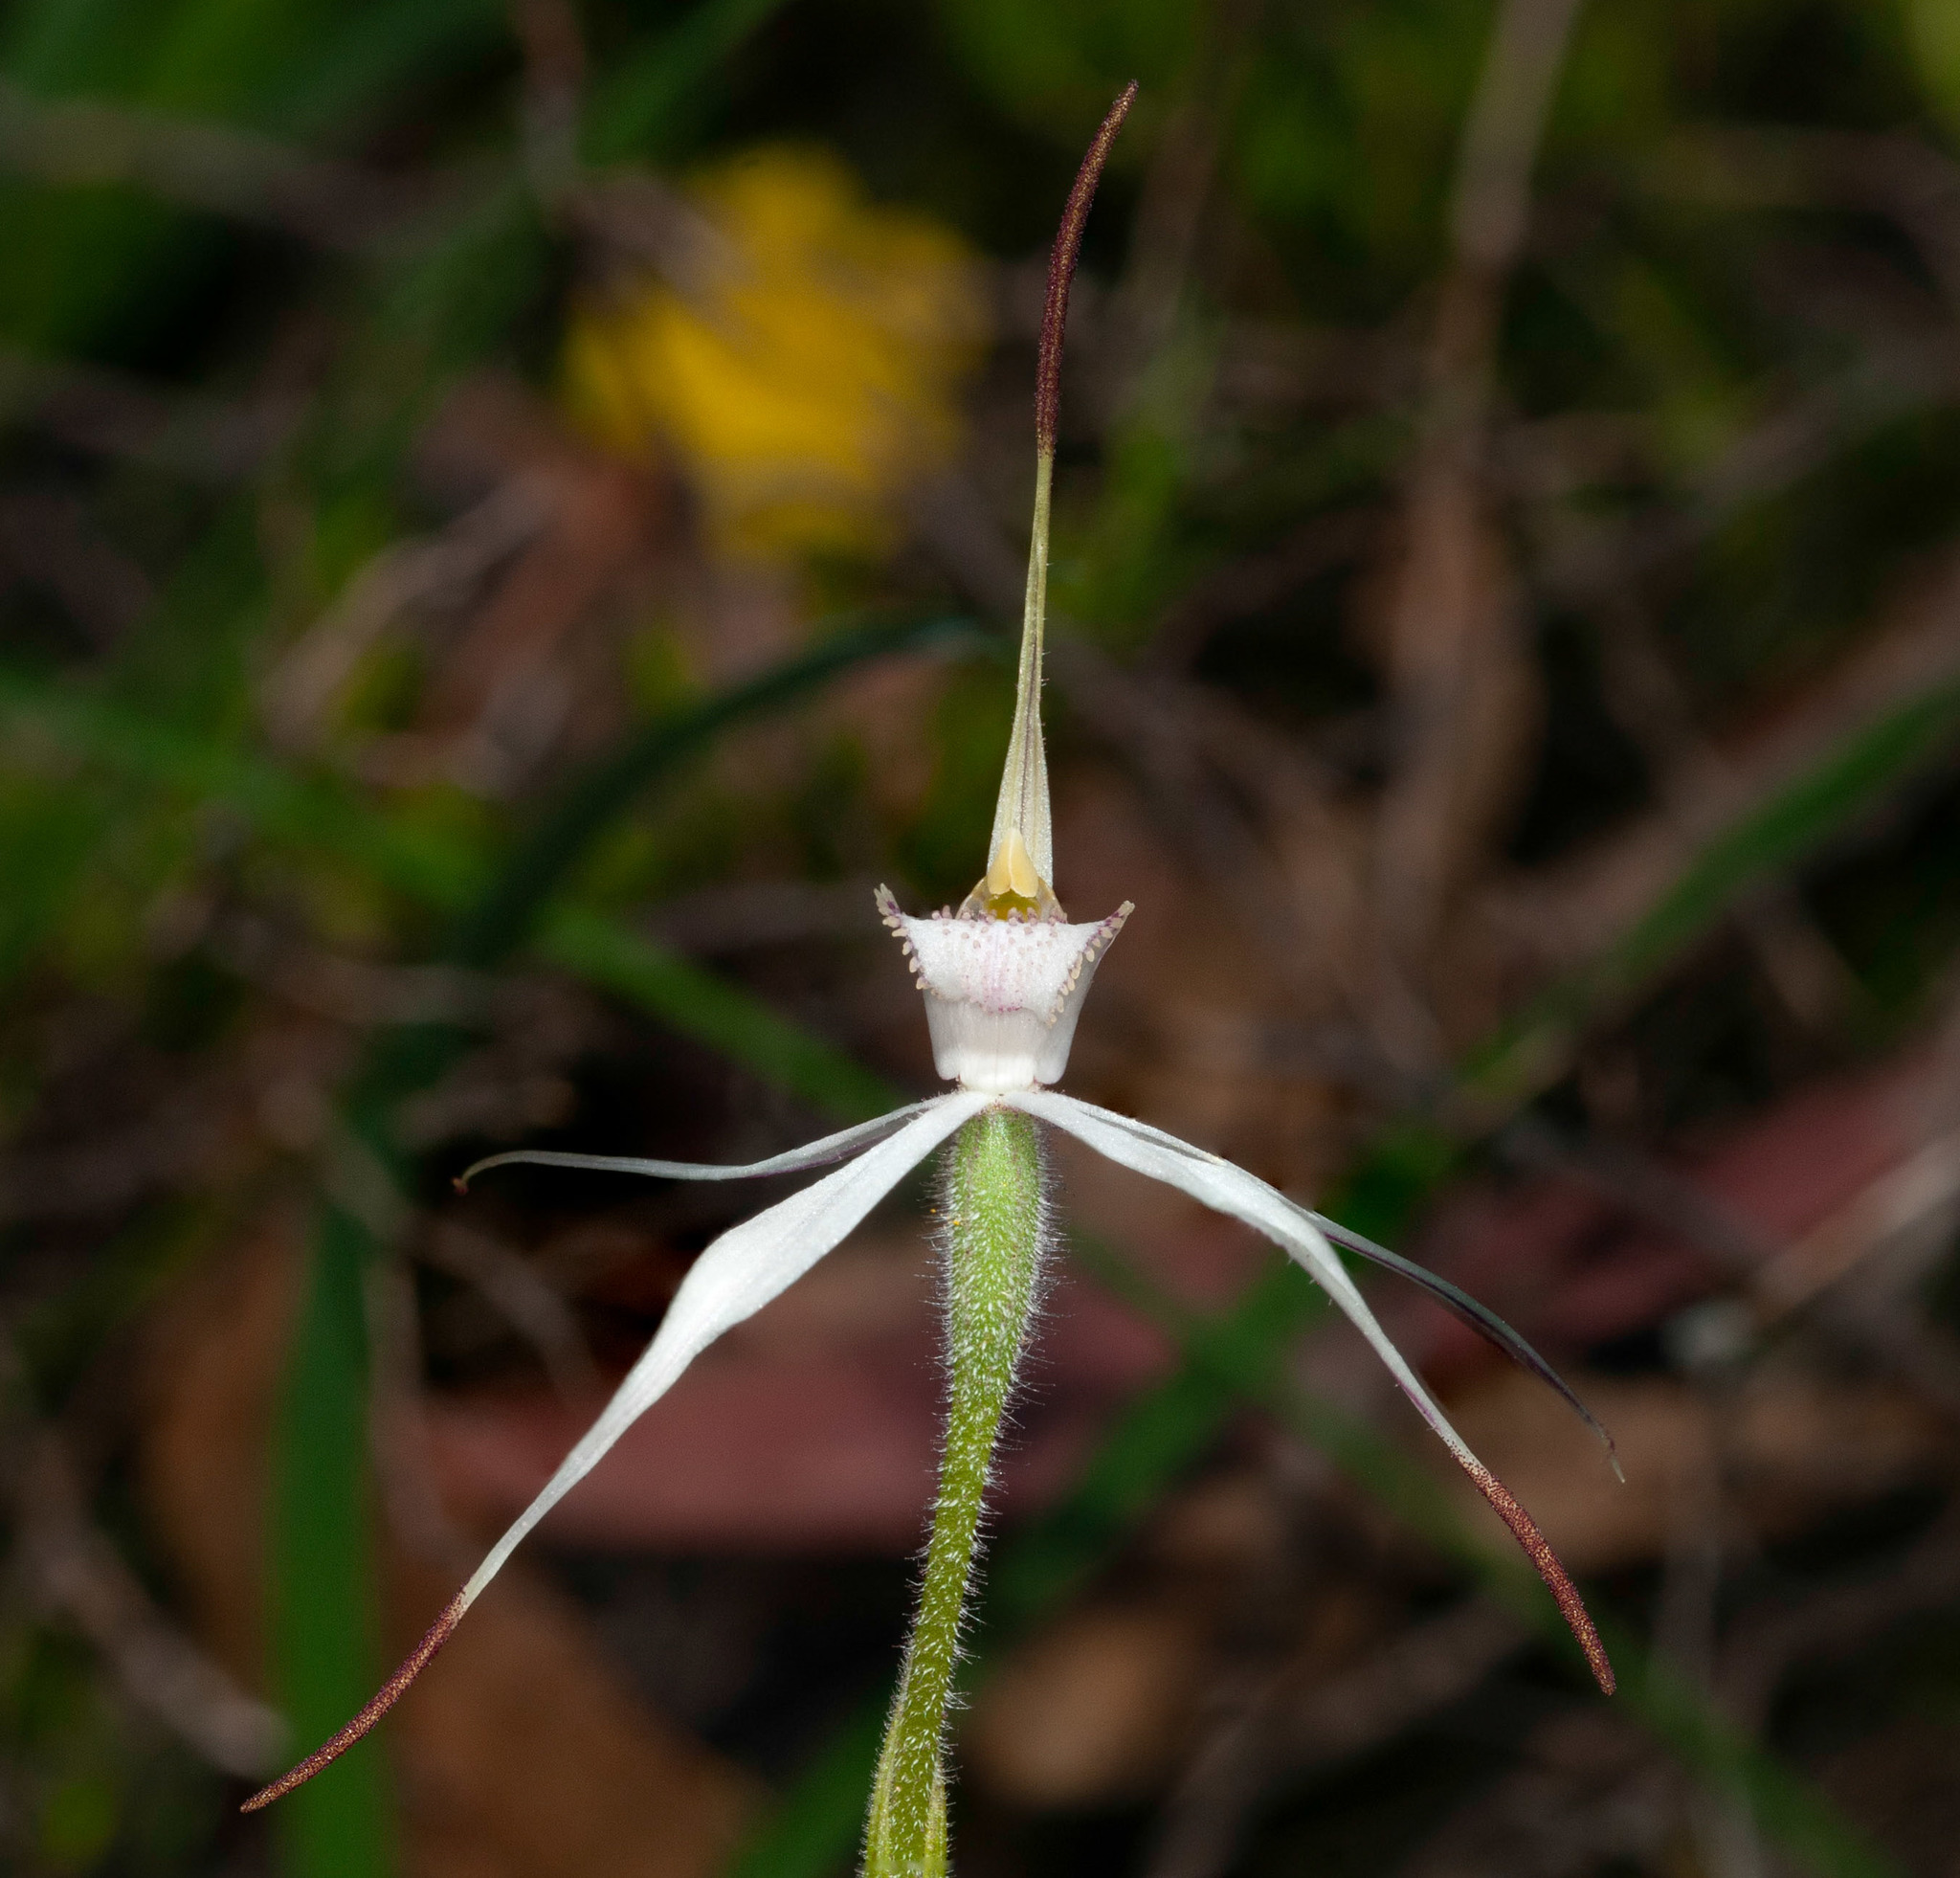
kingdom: Plantae
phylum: Tracheophyta
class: Liliopsida
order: Asparagales
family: Orchidaceae
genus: Caladenia
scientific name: Caladenia rigida
